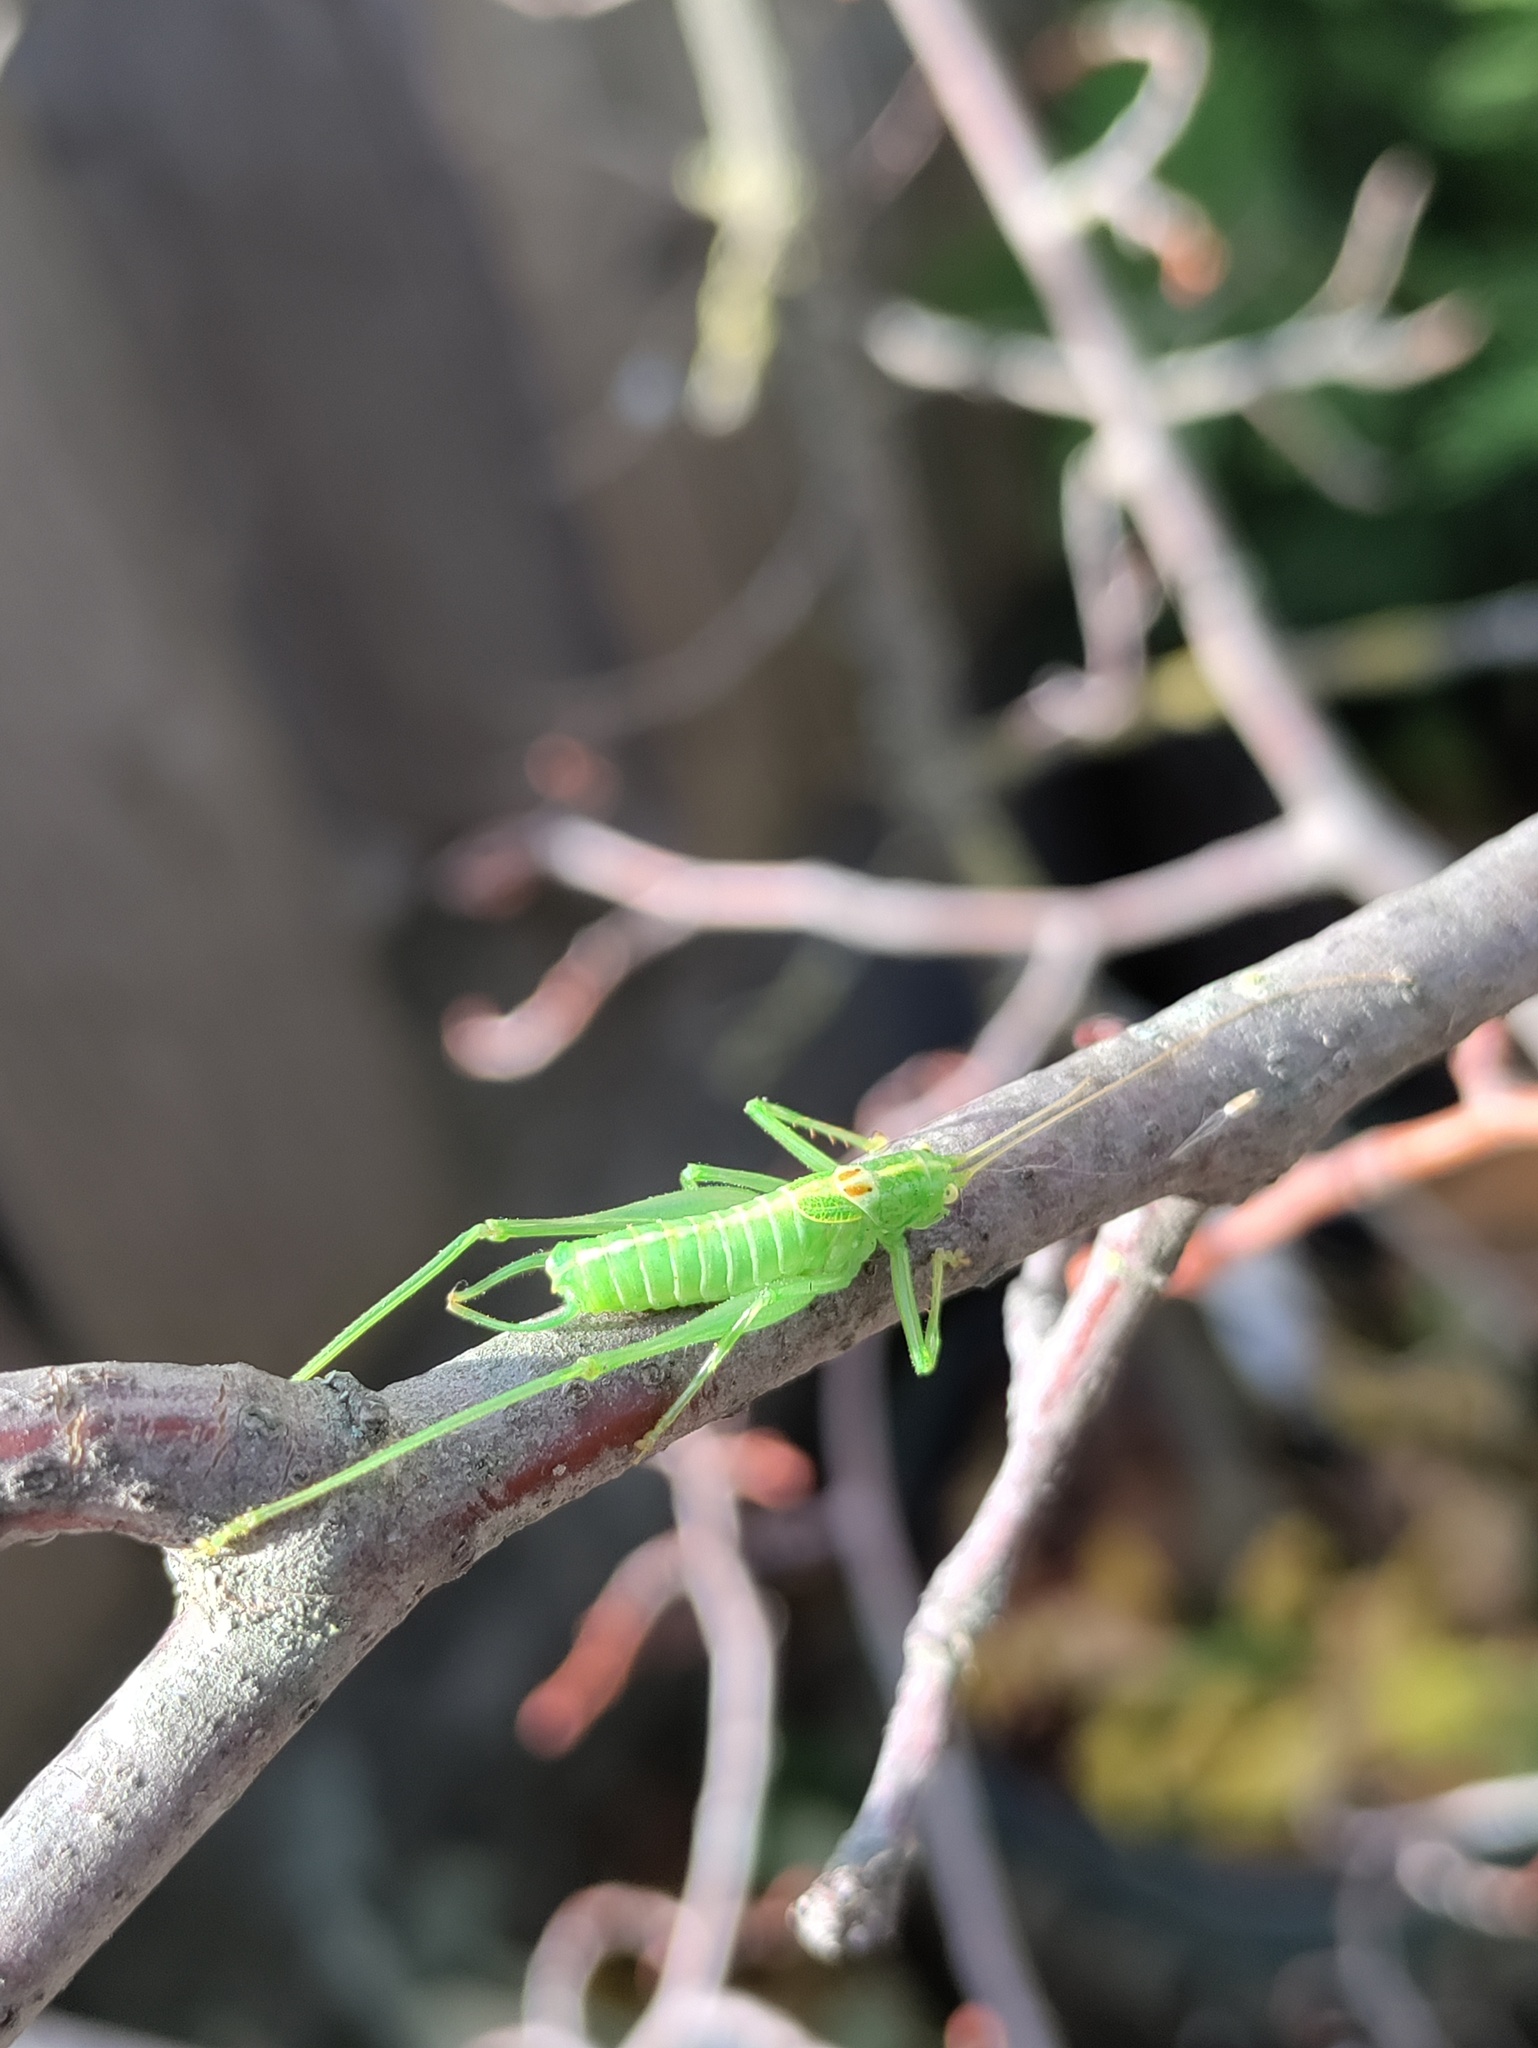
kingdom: Animalia
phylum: Arthropoda
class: Insecta
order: Orthoptera
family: Tettigoniidae
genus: Meconema
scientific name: Meconema meridionale
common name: Southern oak bush-cricket
